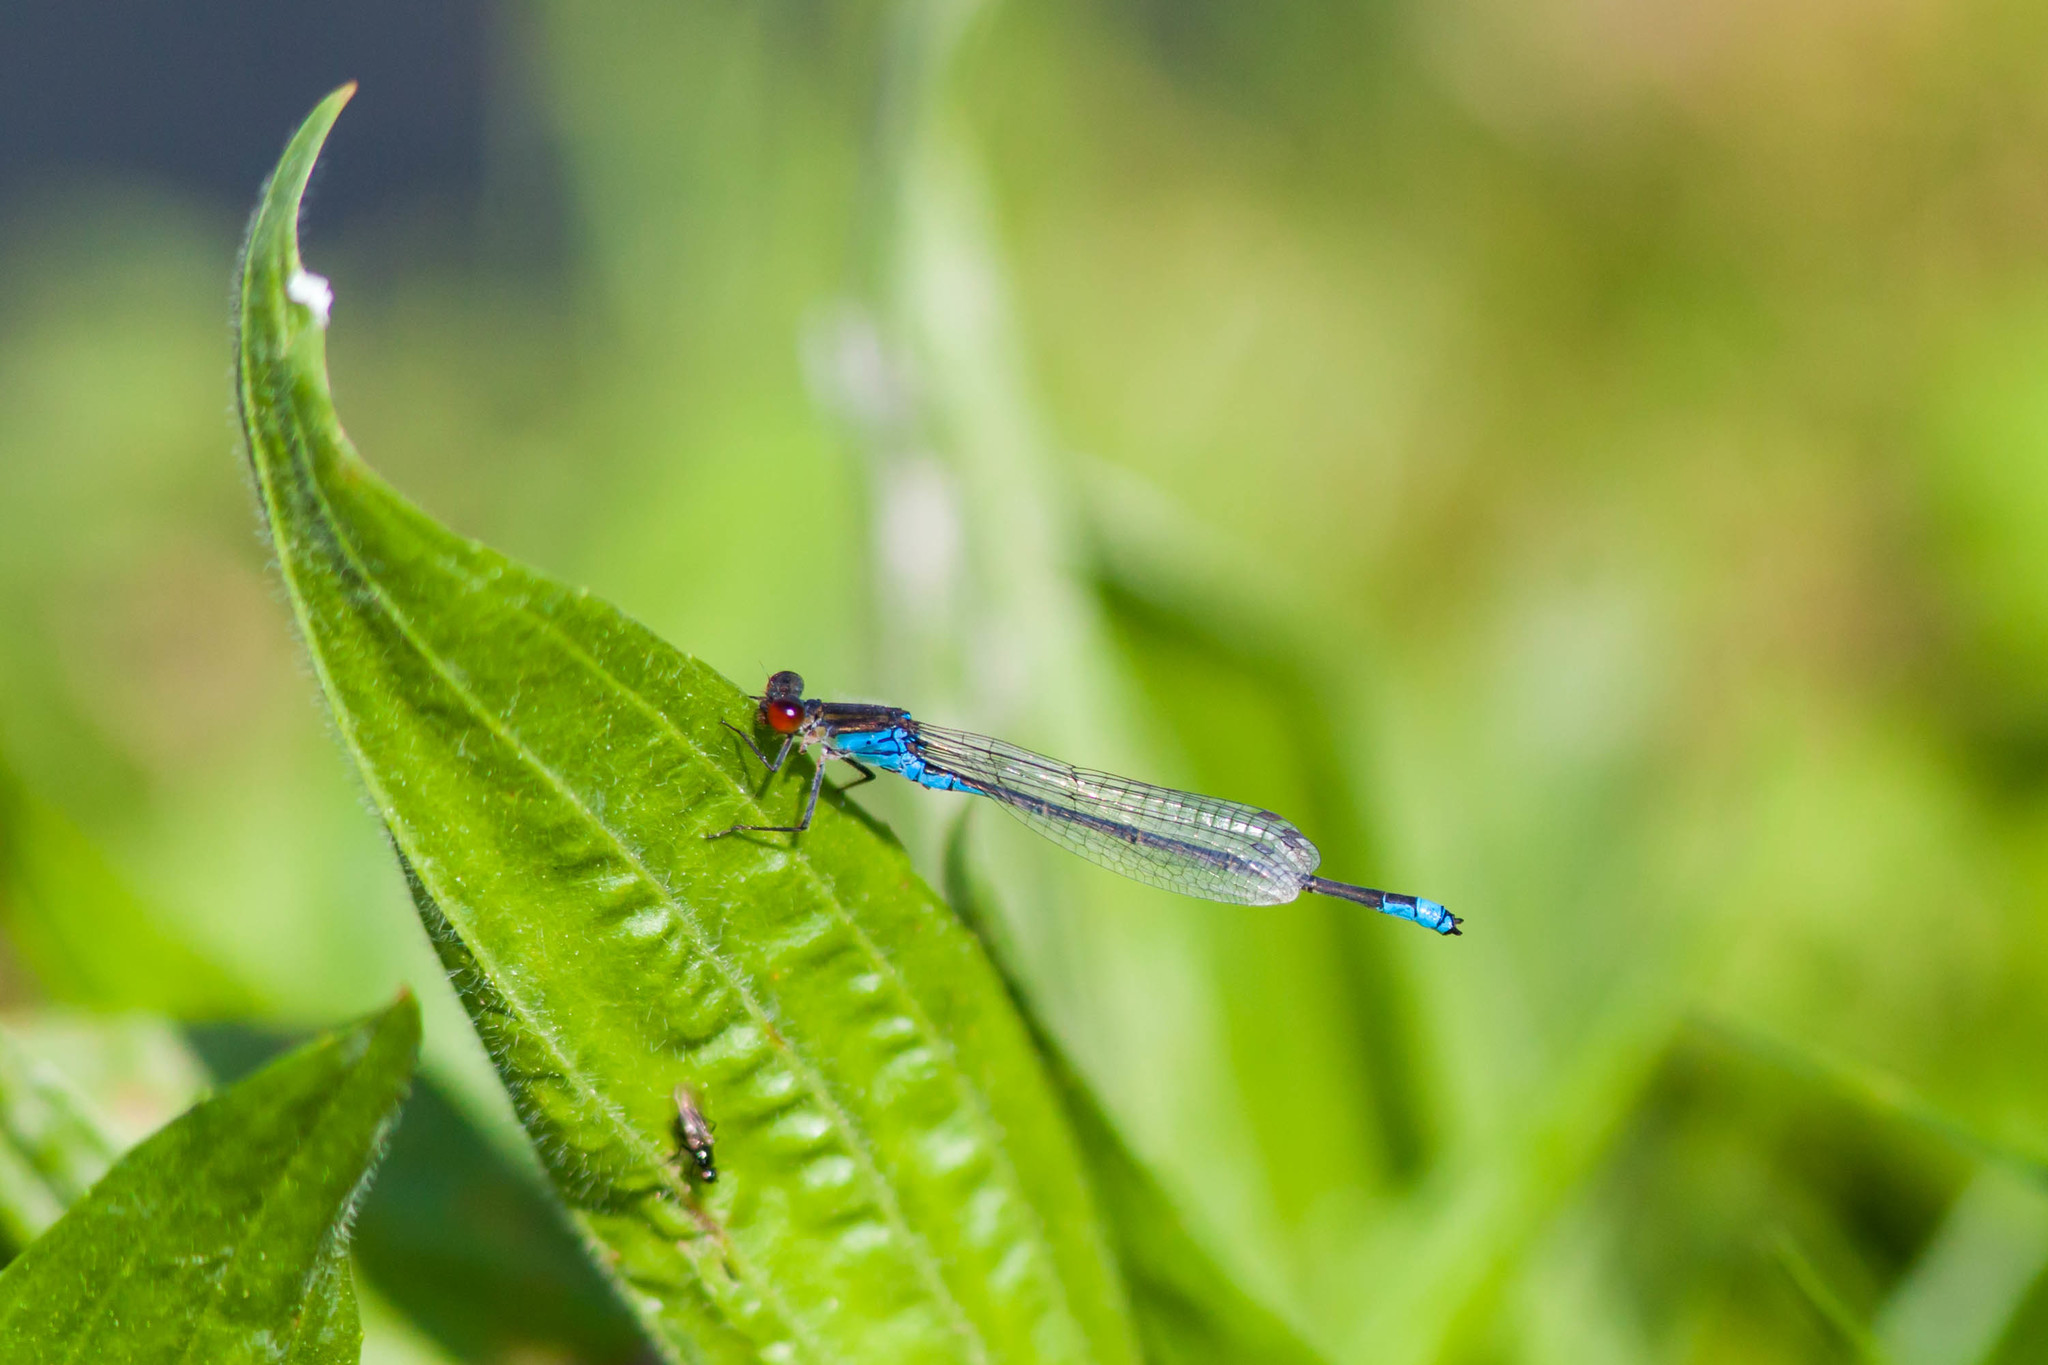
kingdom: Animalia
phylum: Arthropoda
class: Insecta
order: Odonata
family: Coenagrionidae
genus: Erythromma
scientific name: Erythromma viridulum
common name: Small red-eyed damselfly
